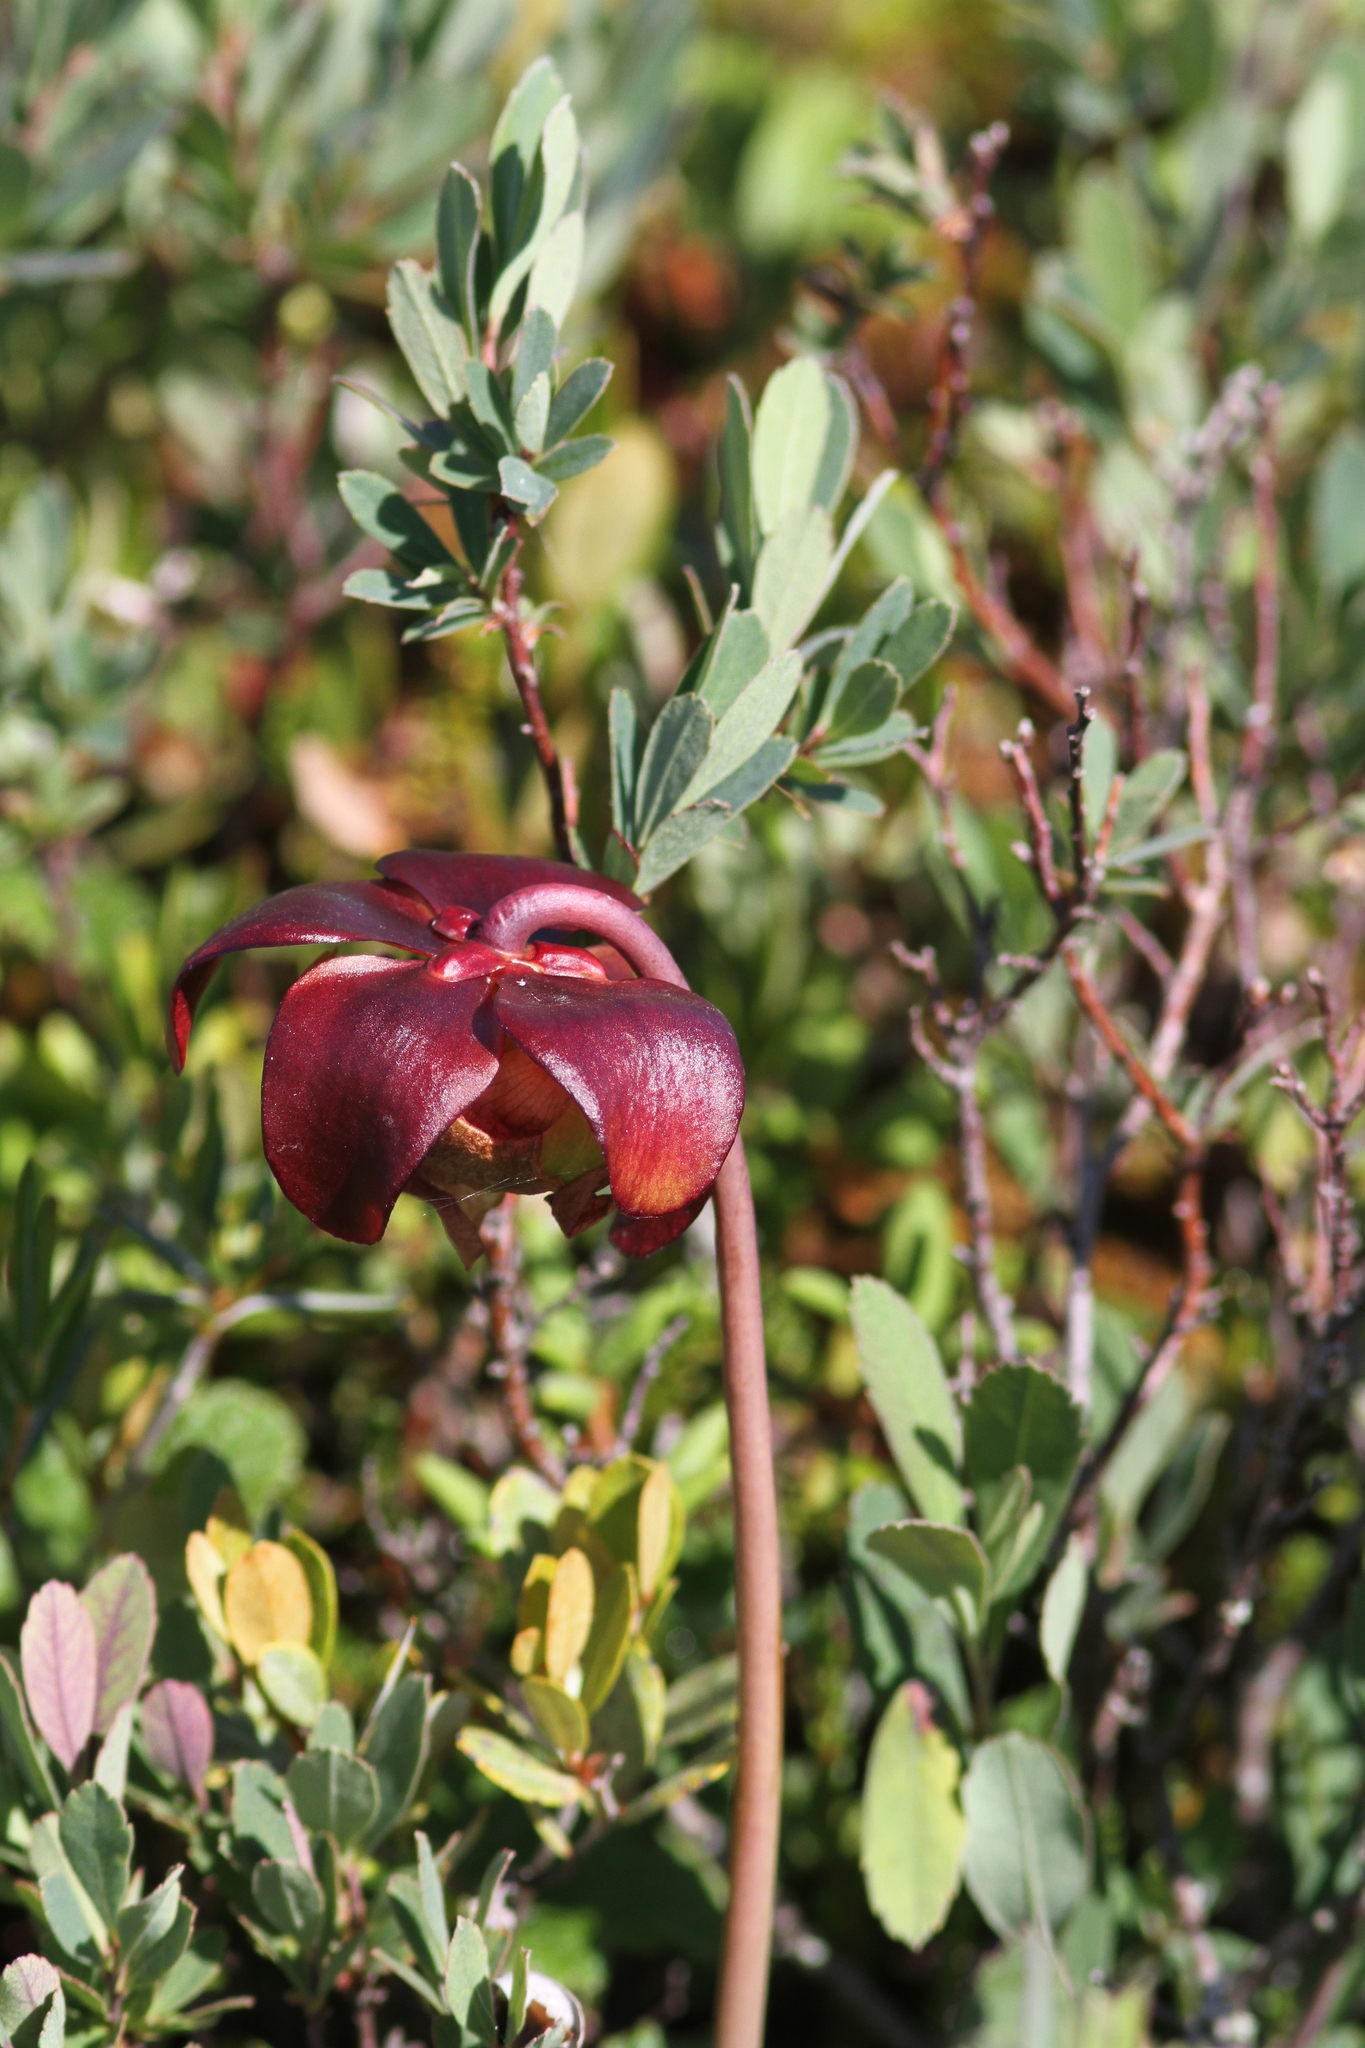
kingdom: Plantae
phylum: Tracheophyta
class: Magnoliopsida
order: Ericales
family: Sarraceniaceae
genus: Sarracenia
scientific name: Sarracenia purpurea
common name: Pitcherplant
